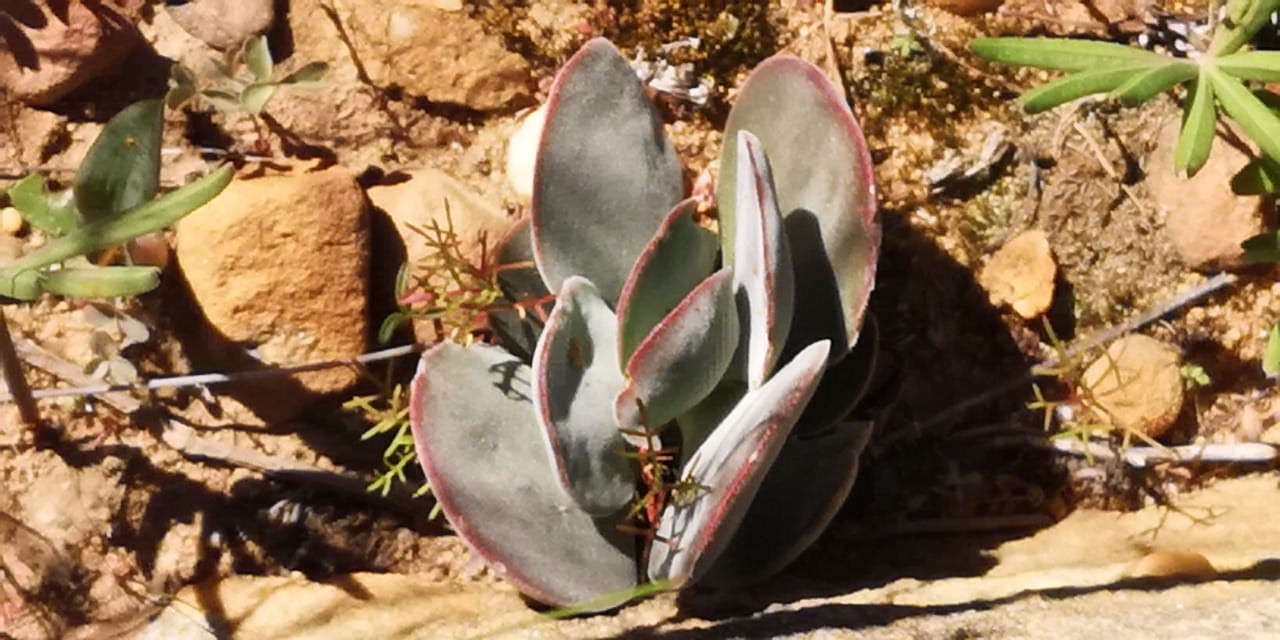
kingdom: Plantae
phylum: Tracheophyta
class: Magnoliopsida
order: Saxifragales
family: Crassulaceae
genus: Crassula
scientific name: Crassula cotyledonis
